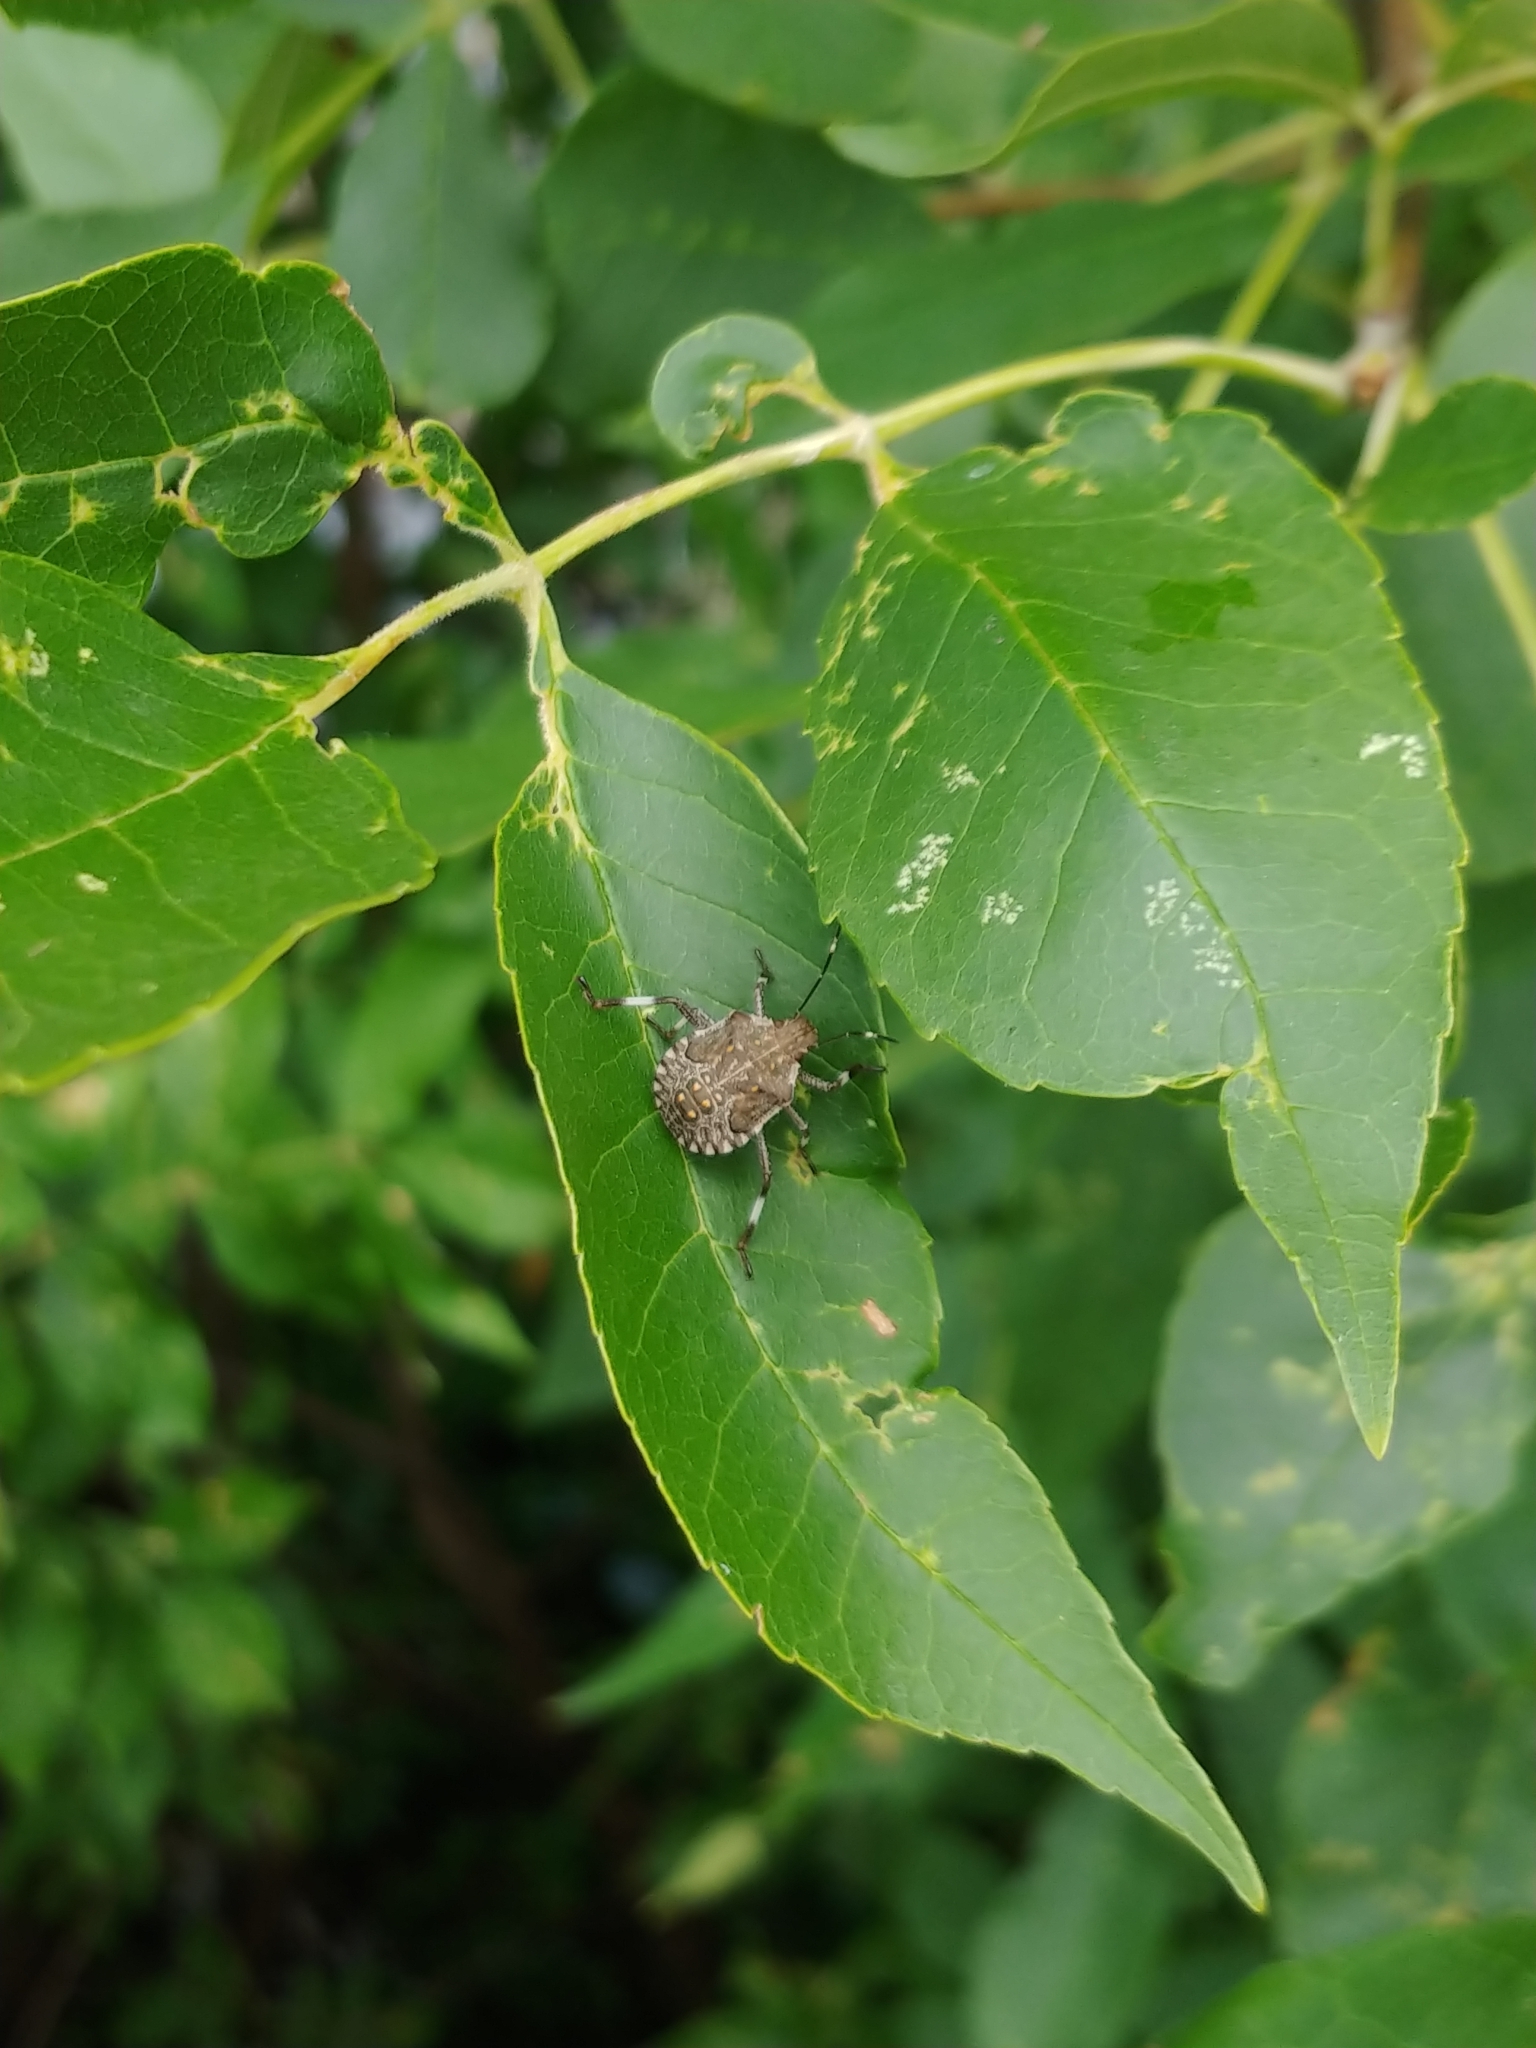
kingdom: Animalia
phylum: Arthropoda
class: Insecta
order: Hemiptera
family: Pentatomidae
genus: Halyomorpha
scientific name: Halyomorpha halys
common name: Brown marmorated stink bug
